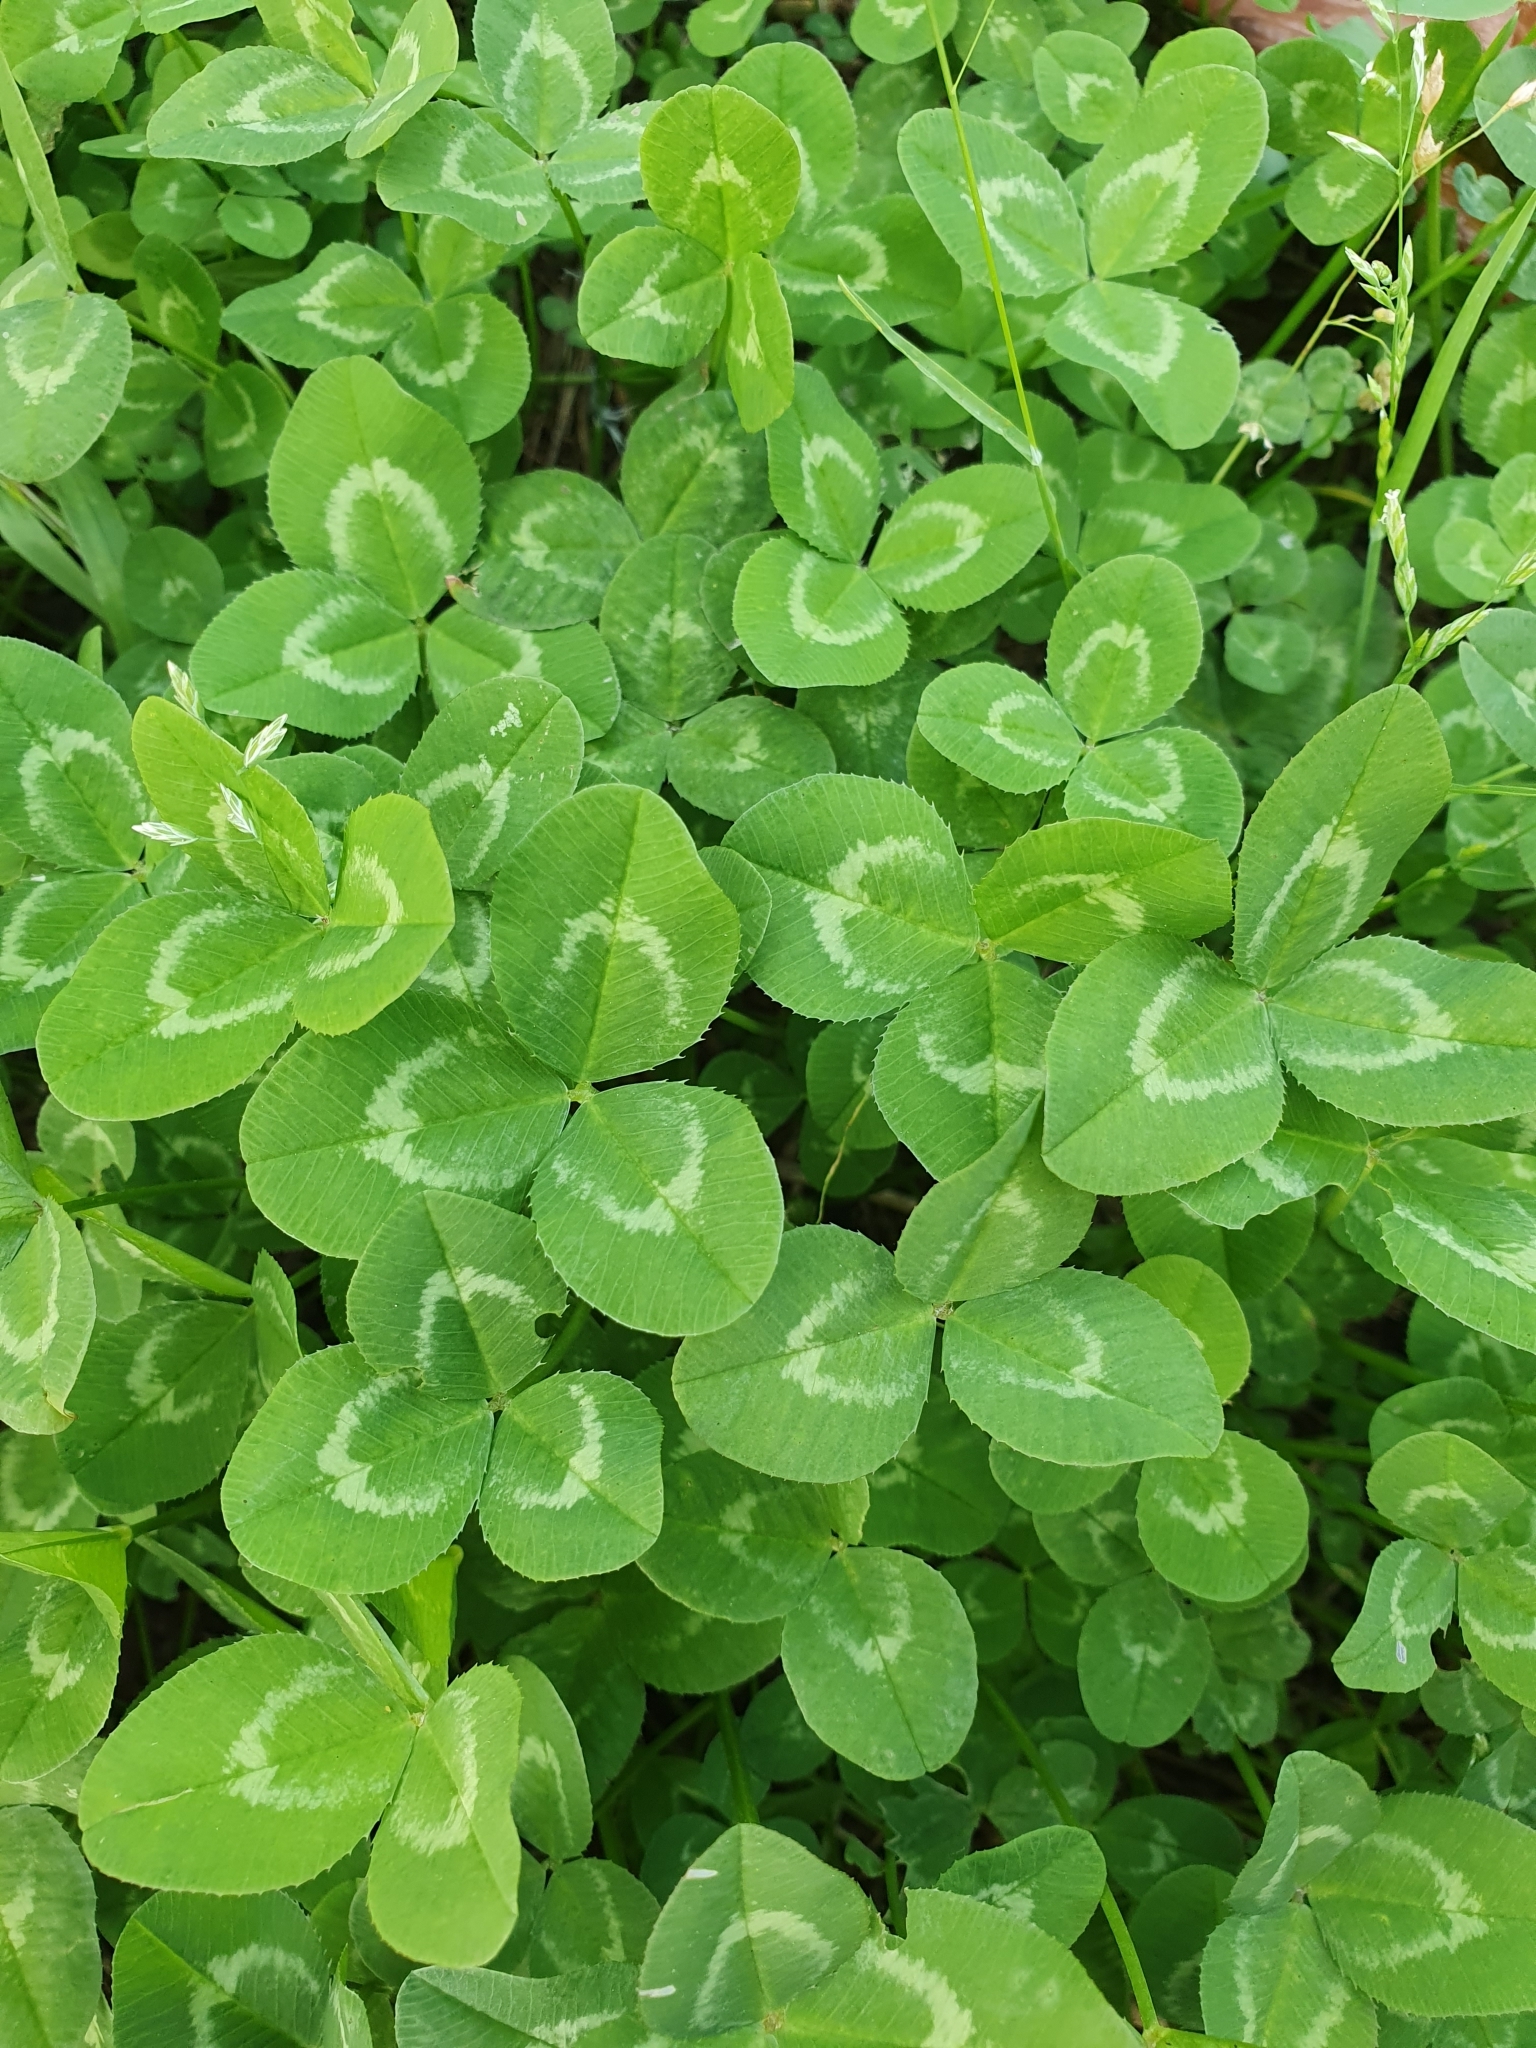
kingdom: Plantae
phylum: Tracheophyta
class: Magnoliopsida
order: Fabales
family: Fabaceae
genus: Trifolium
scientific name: Trifolium repens
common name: White clover
